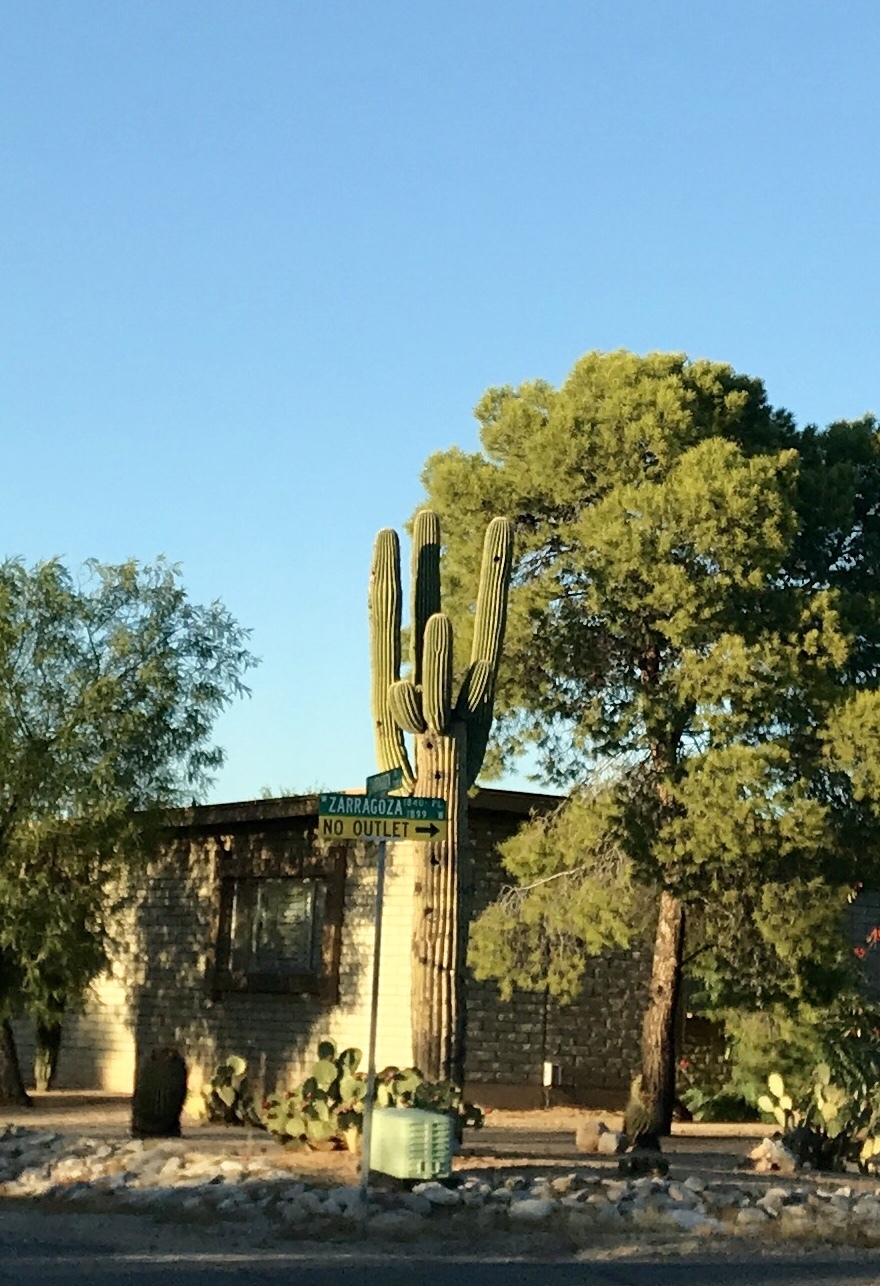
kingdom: Plantae
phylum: Tracheophyta
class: Magnoliopsida
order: Caryophyllales
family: Cactaceae
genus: Carnegiea
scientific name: Carnegiea gigantea
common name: Saguaro
